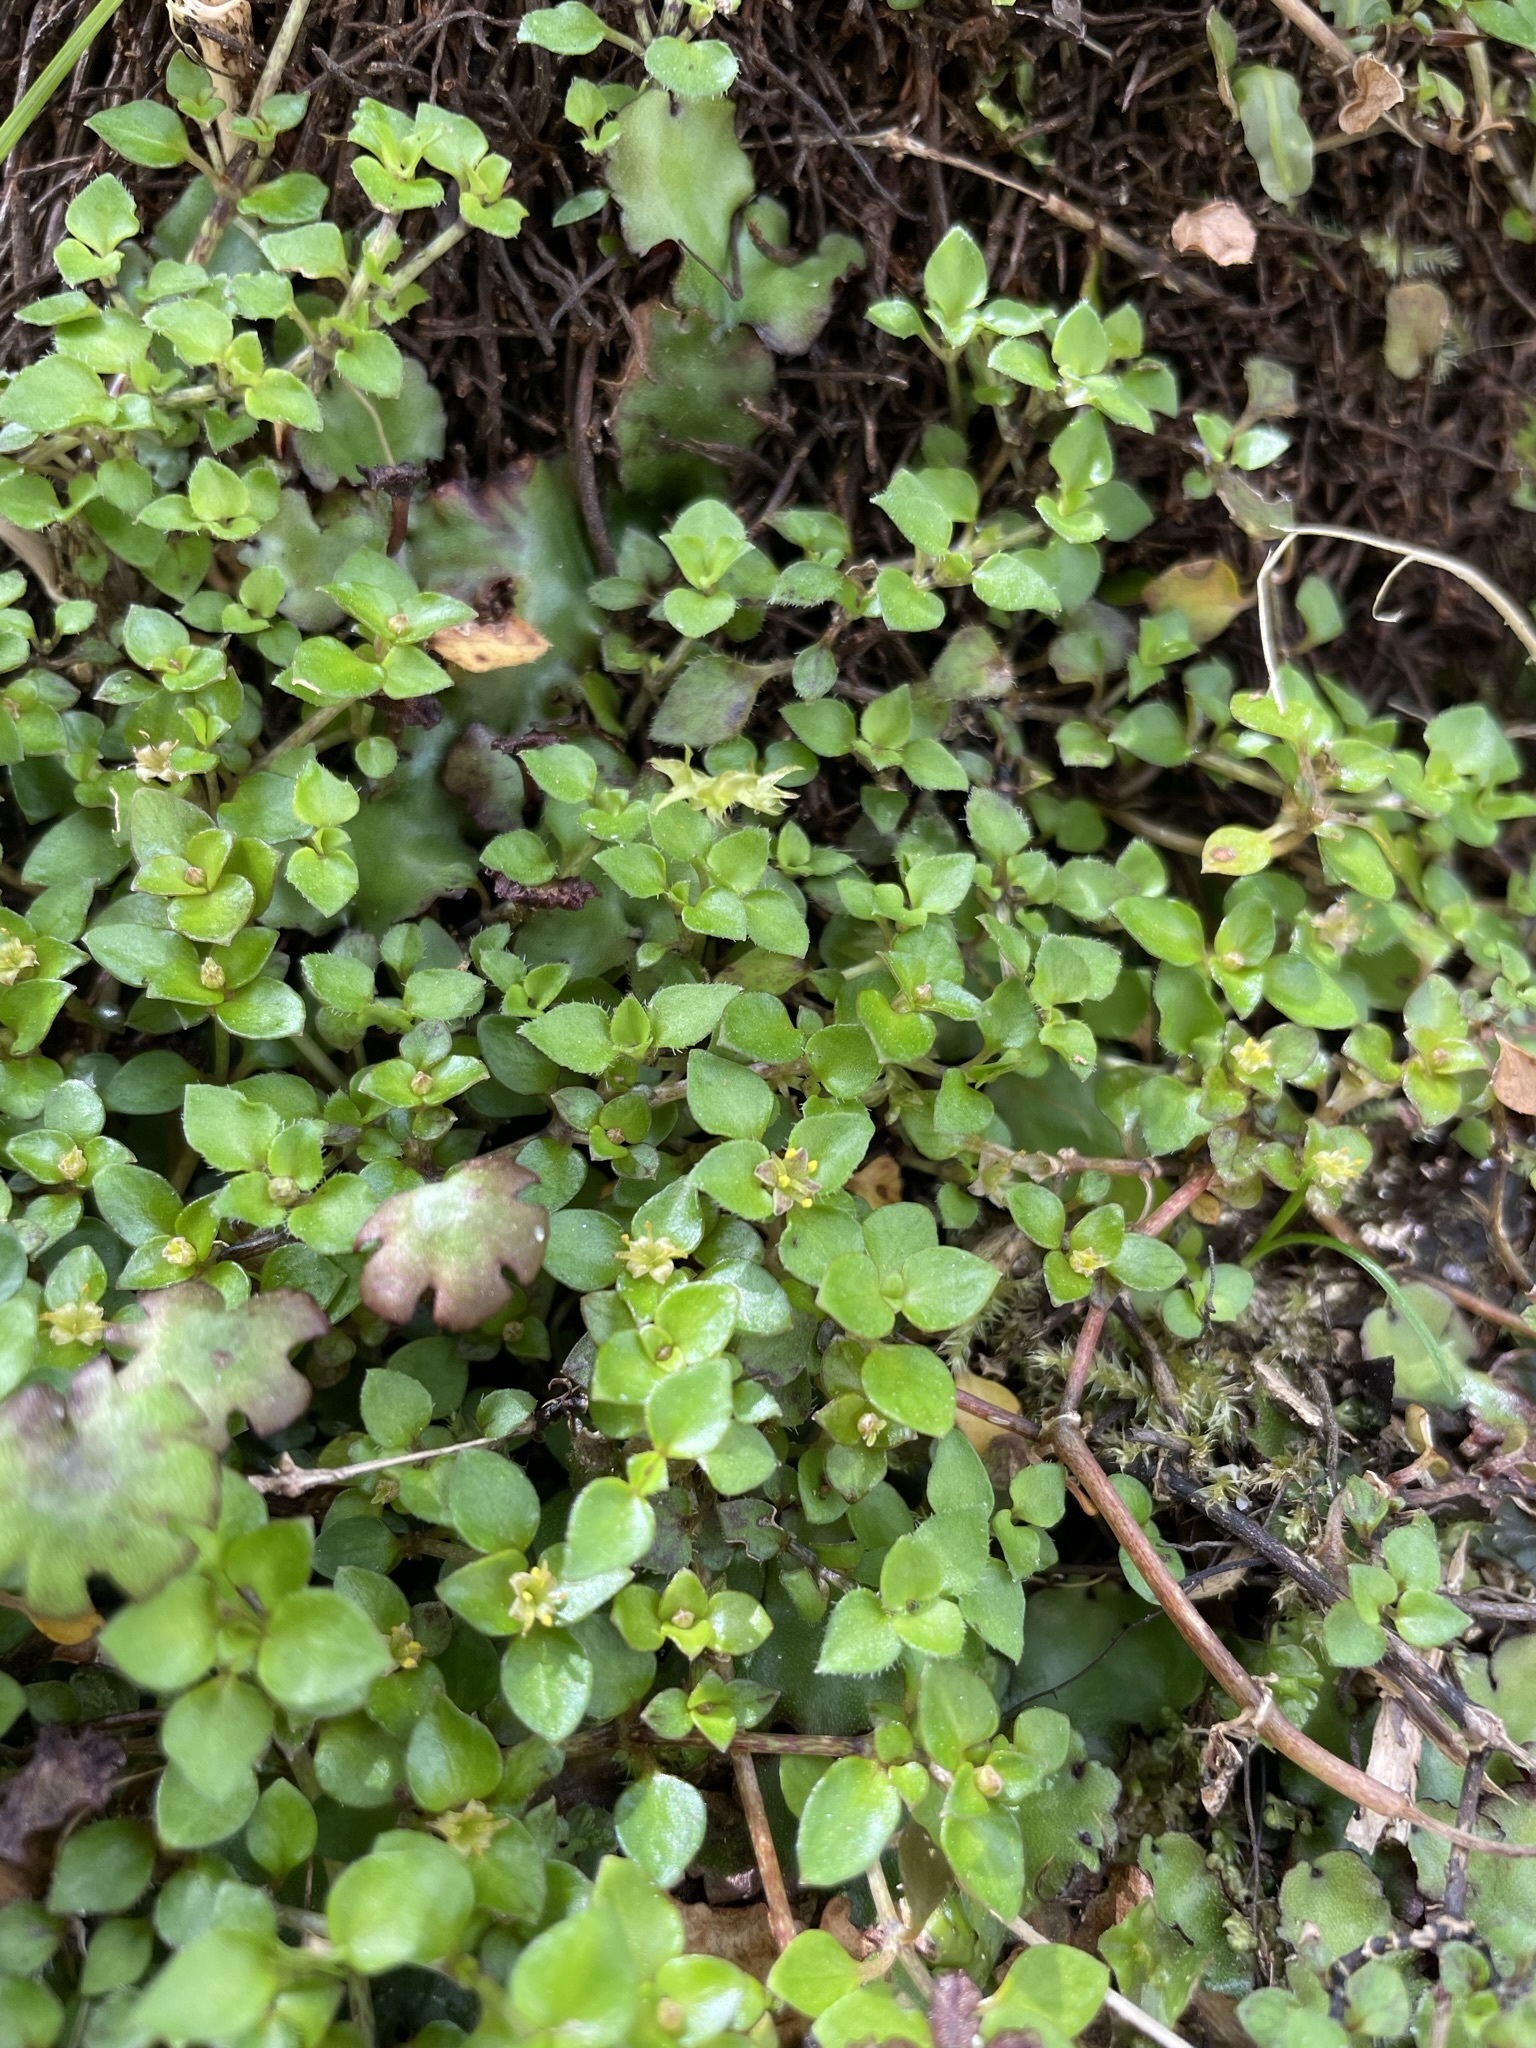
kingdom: Plantae
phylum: Tracheophyta
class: Magnoliopsida
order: Gentianales
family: Rubiaceae
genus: Nertera
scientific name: Nertera ciliata
